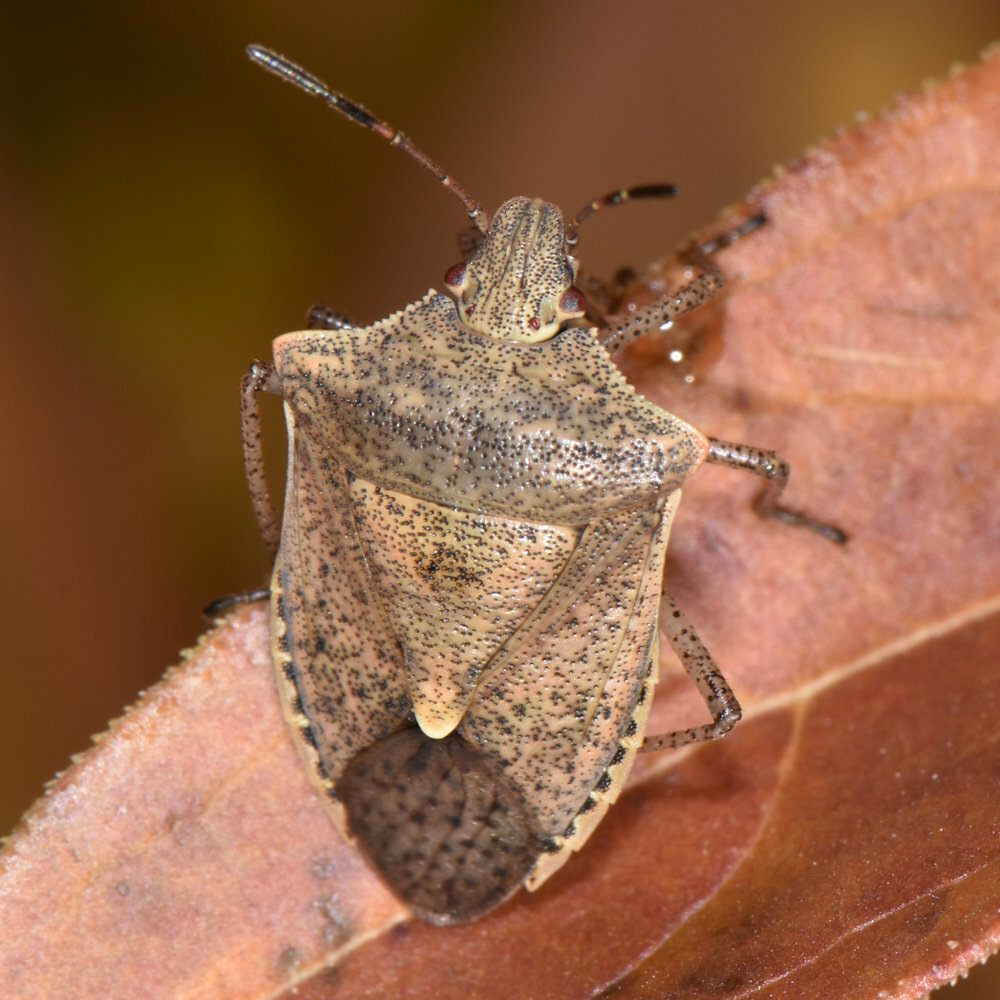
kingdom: Animalia
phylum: Arthropoda
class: Insecta
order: Hemiptera
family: Pentatomidae
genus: Euschistus
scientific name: Euschistus servus
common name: Brown stink bug
